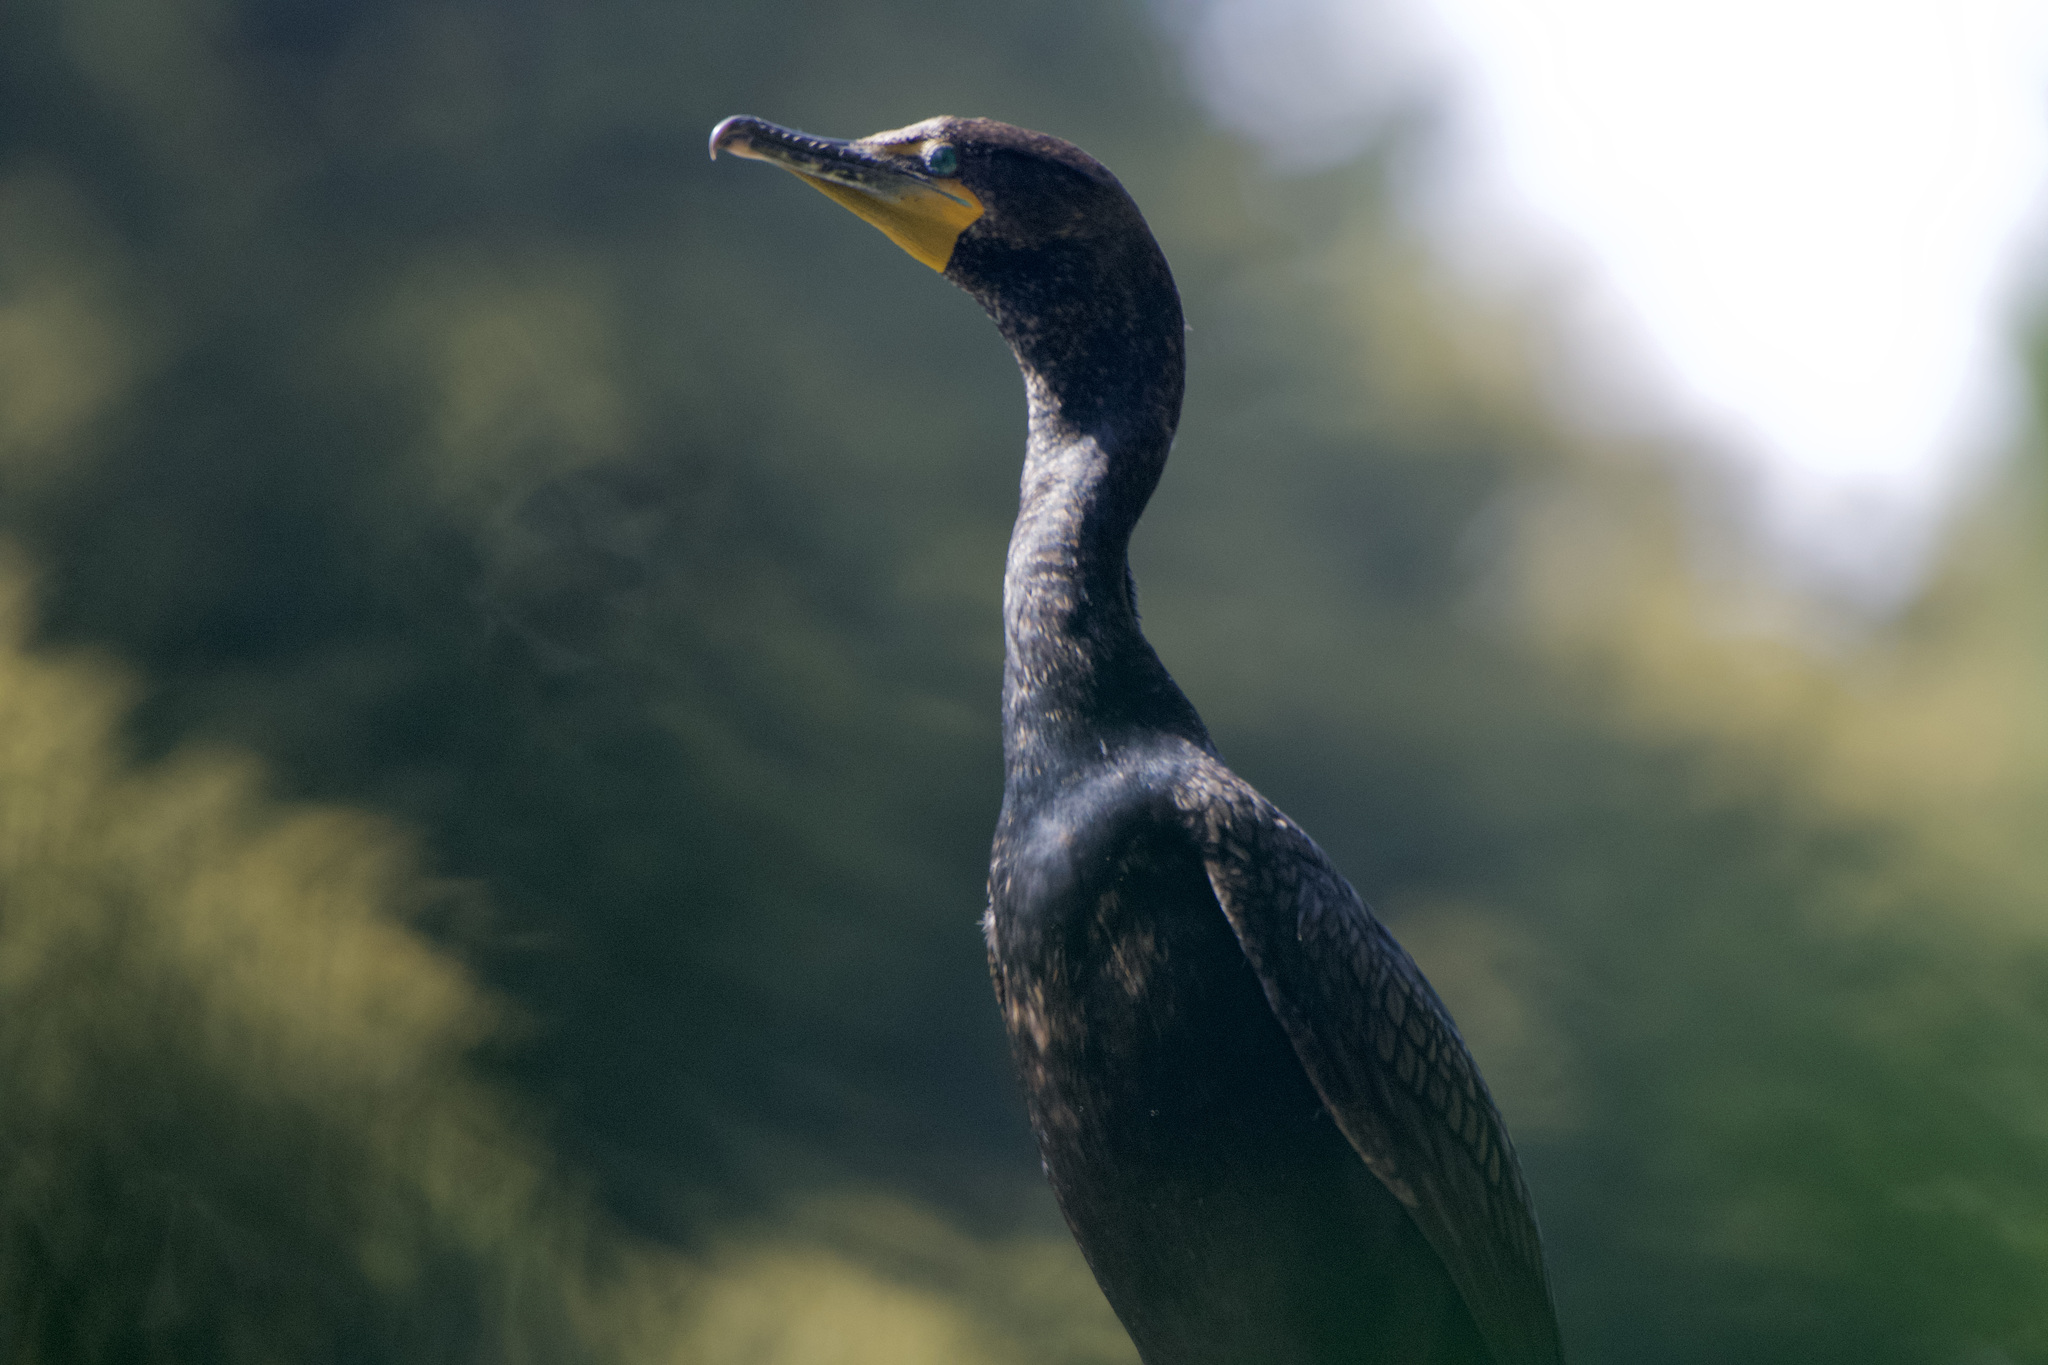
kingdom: Animalia
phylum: Chordata
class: Aves
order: Suliformes
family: Phalacrocoracidae
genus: Phalacrocorax
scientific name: Phalacrocorax auritus
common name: Double-crested cormorant
